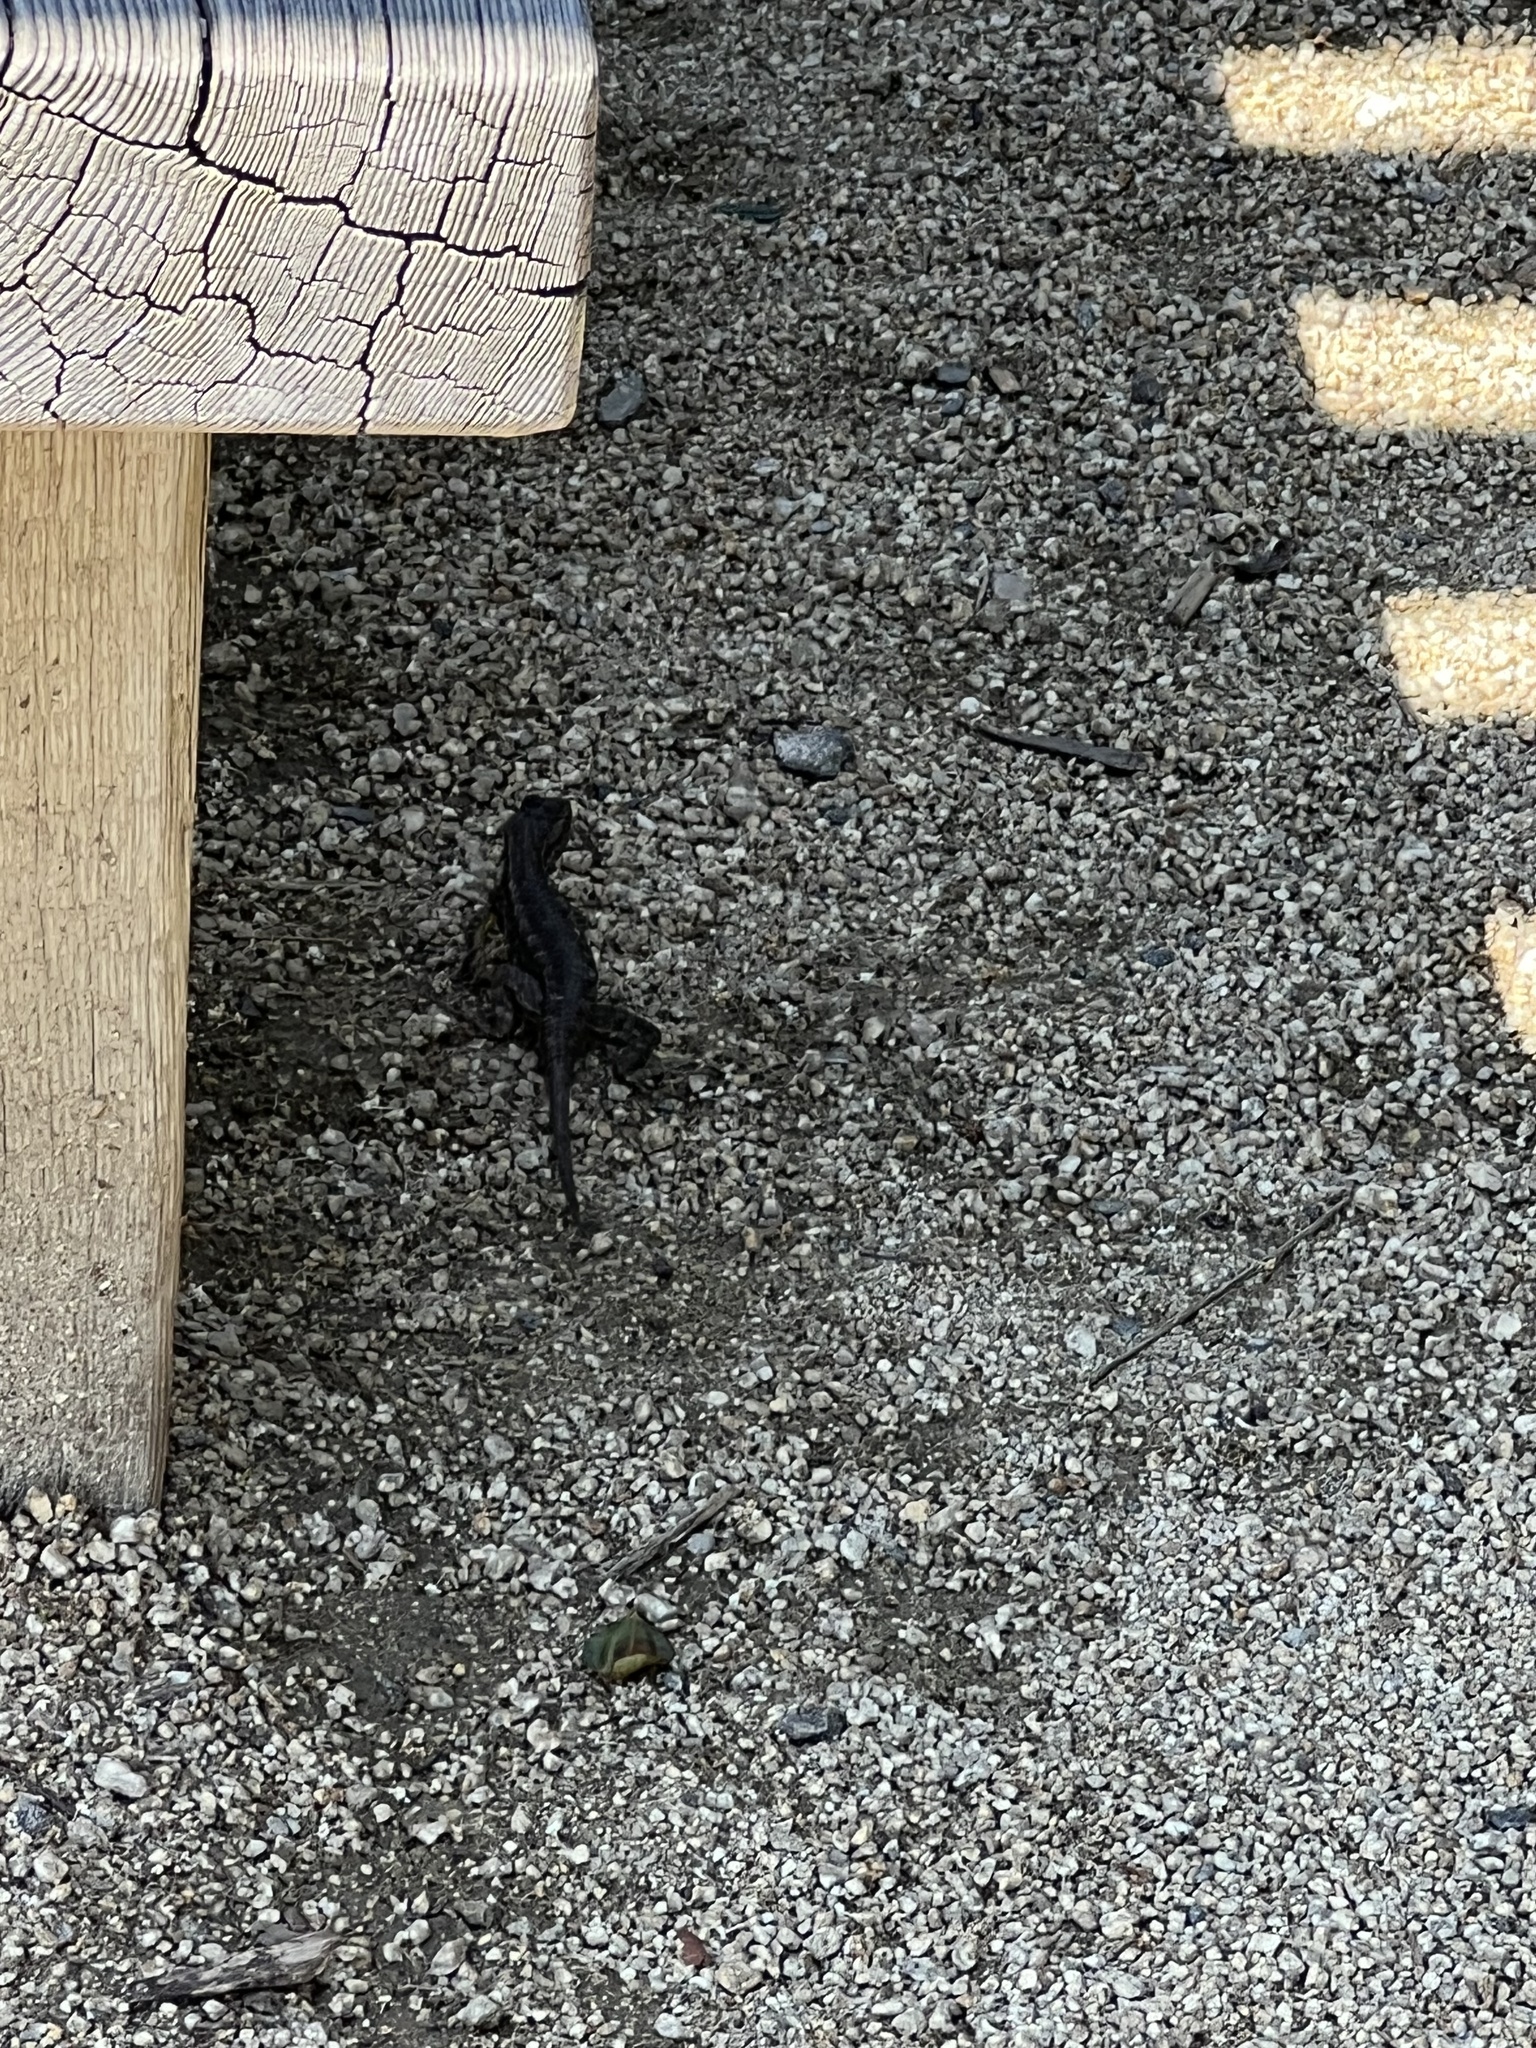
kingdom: Animalia
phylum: Chordata
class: Squamata
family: Phrynosomatidae
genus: Sceloporus
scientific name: Sceloporus occidentalis
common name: Western fence lizard
